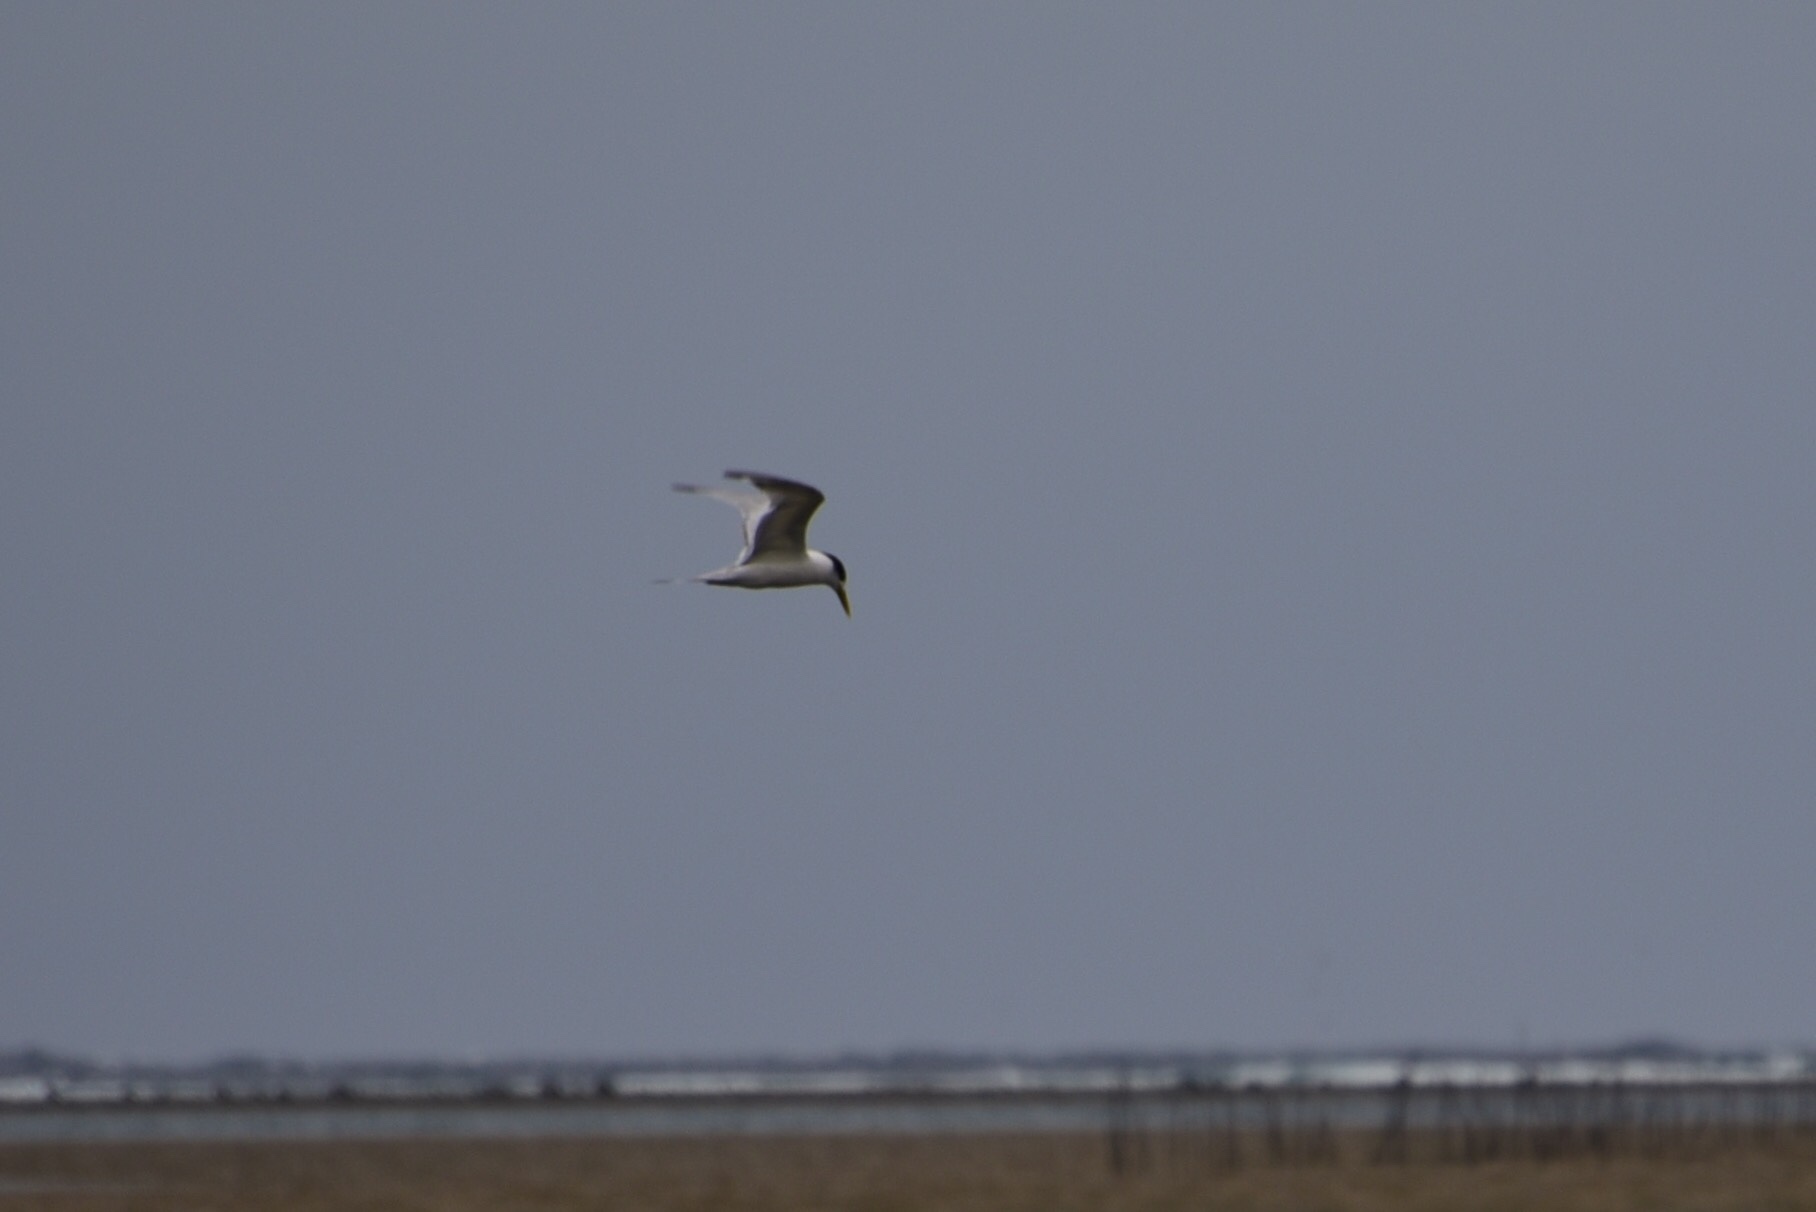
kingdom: Animalia
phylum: Chordata
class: Aves
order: Charadriiformes
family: Laridae
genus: Thalasseus
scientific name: Thalasseus bergii
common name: Greater crested tern
